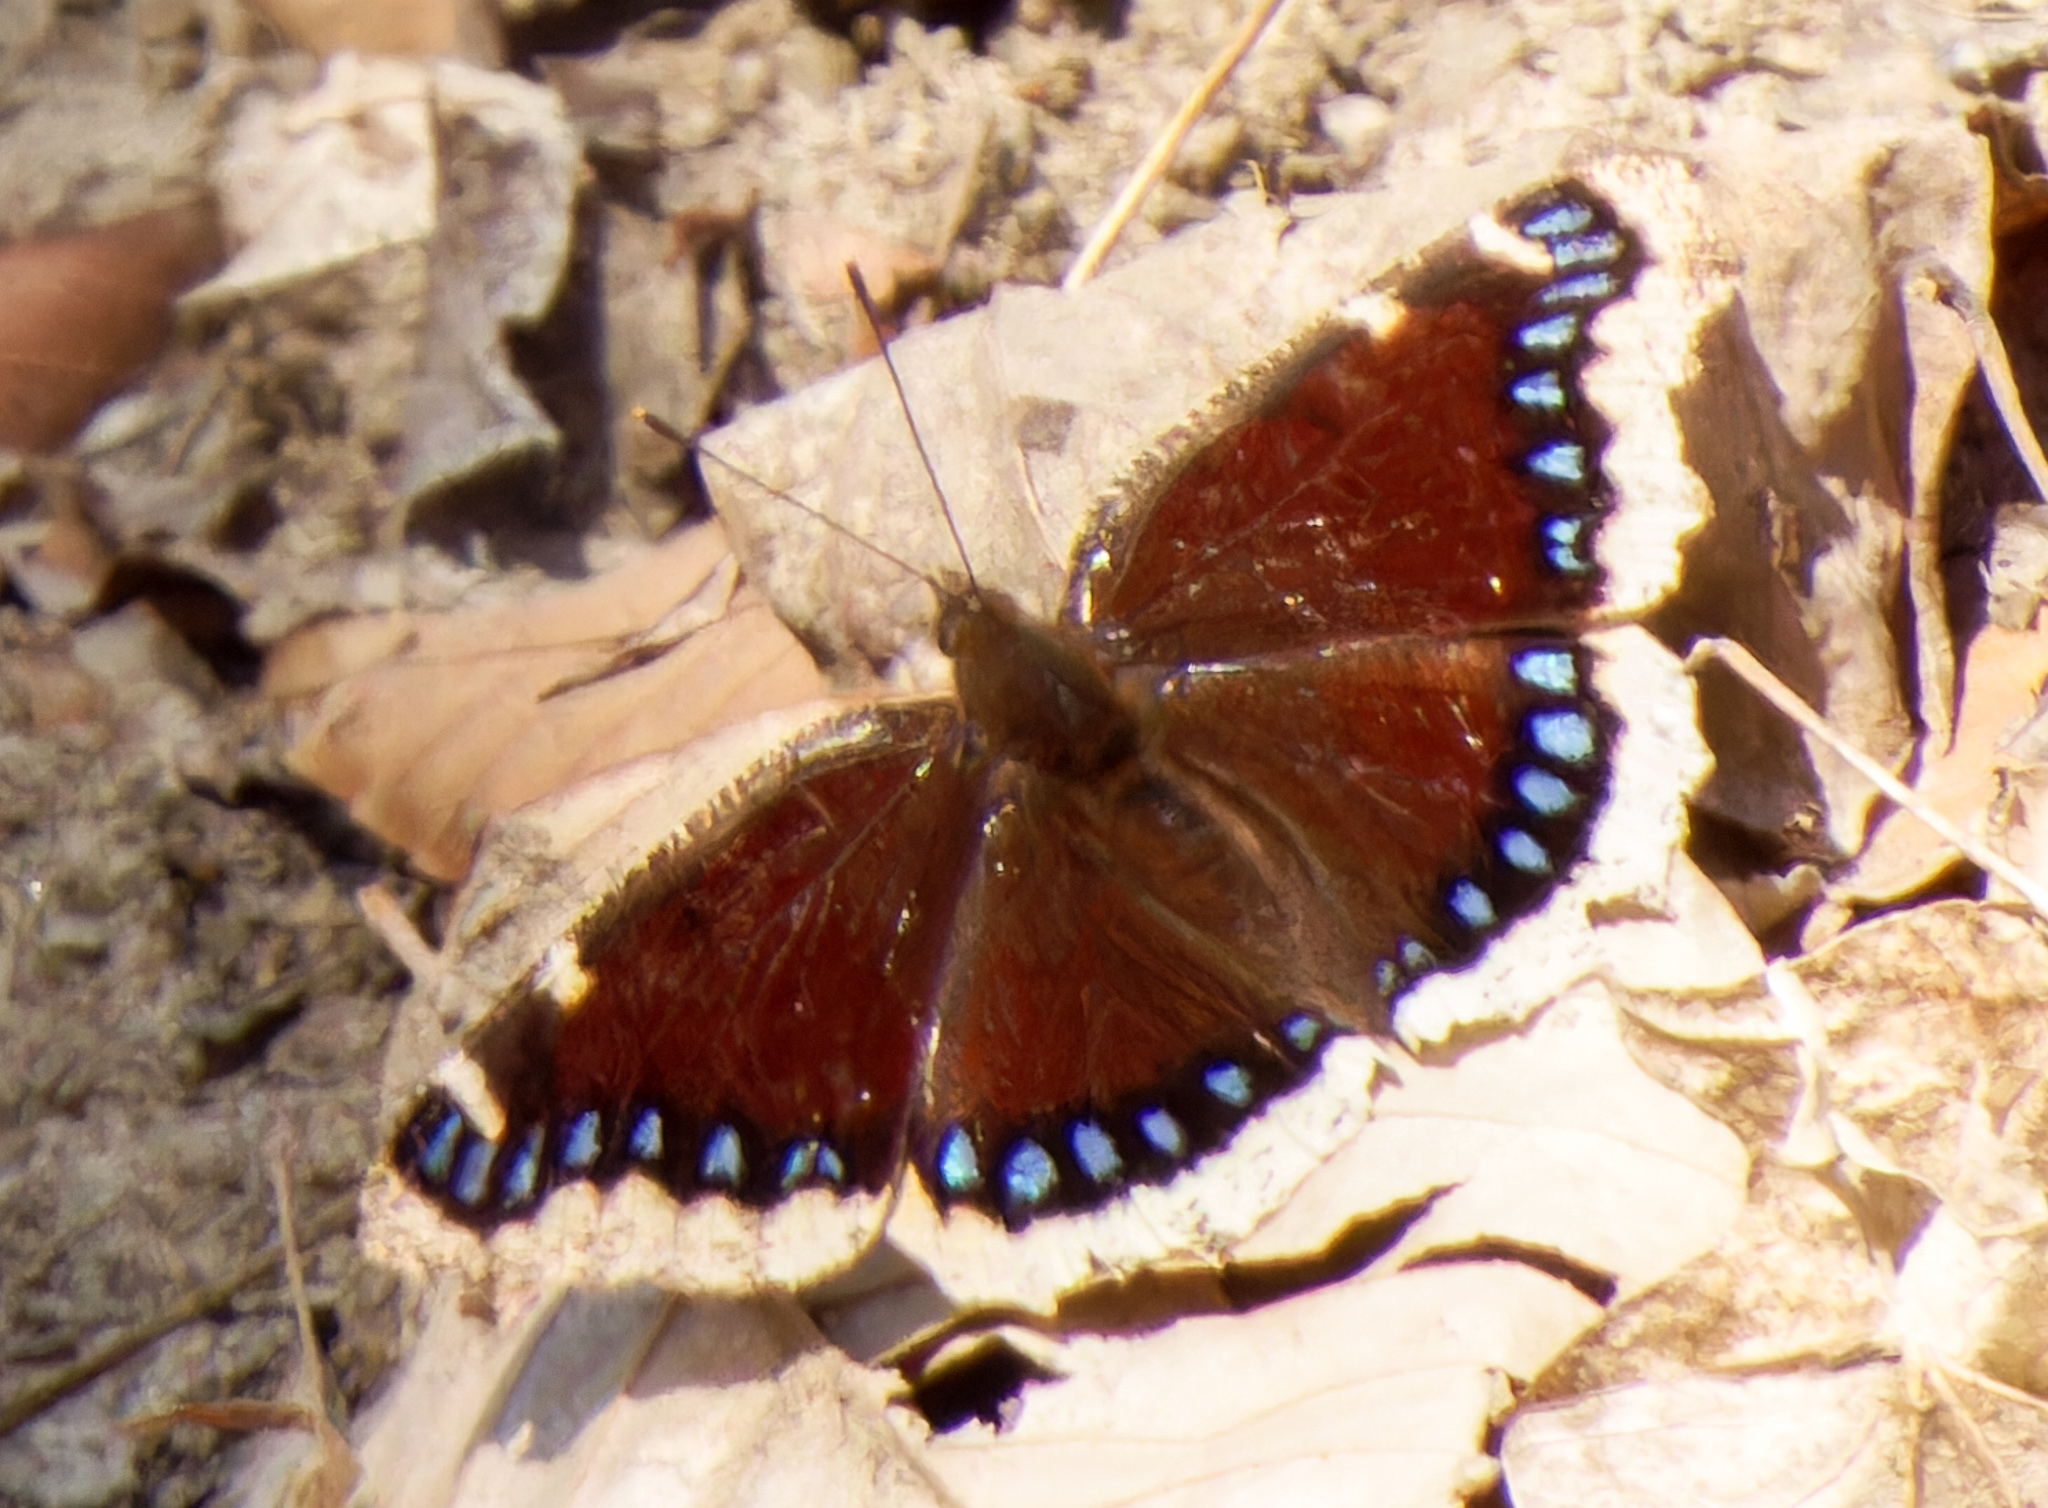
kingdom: Animalia
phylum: Arthropoda
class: Insecta
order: Lepidoptera
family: Nymphalidae
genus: Nymphalis
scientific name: Nymphalis antiopa
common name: Camberwell beauty
